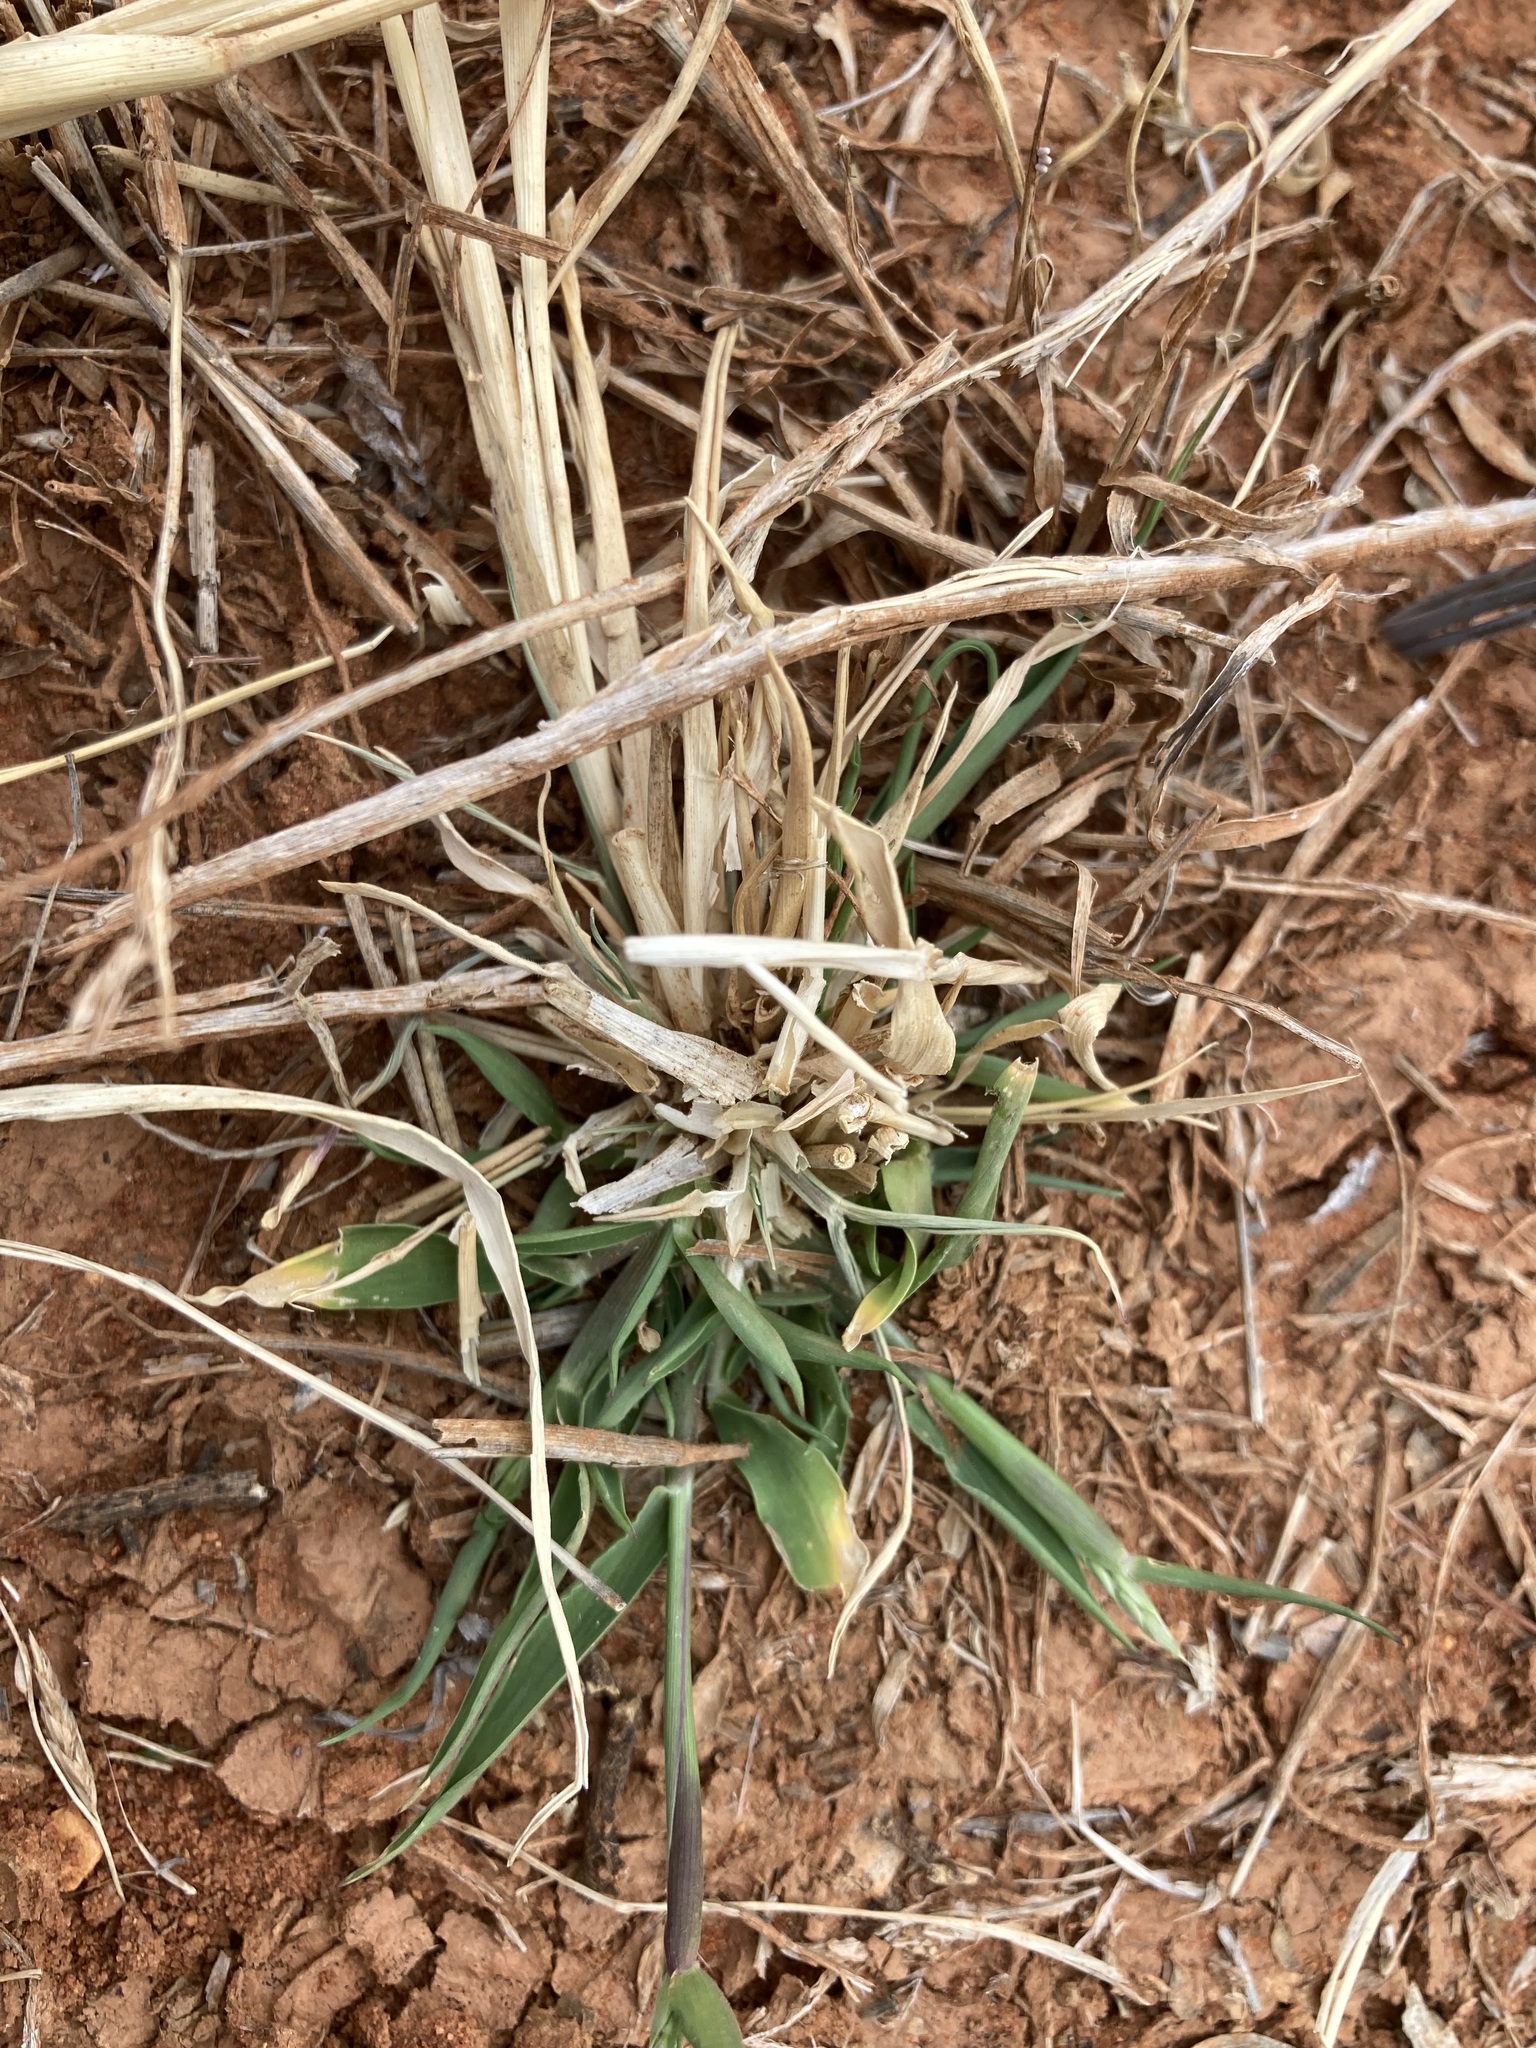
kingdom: Plantae
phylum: Tracheophyta
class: Liliopsida
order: Poales
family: Poaceae
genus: Eriochloa
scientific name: Eriochloa pseudoacrotricha
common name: Perennial cup-grass
